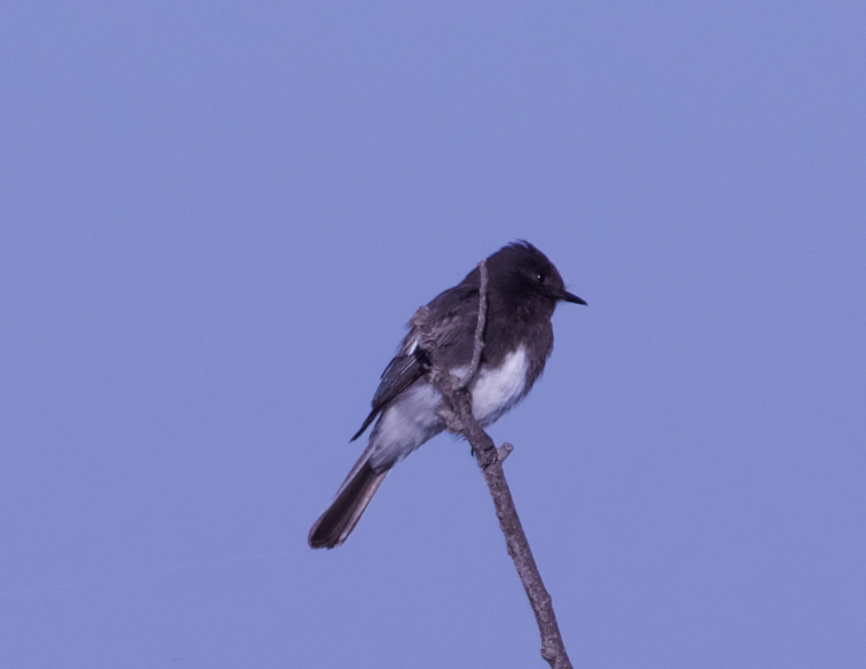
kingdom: Animalia
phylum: Chordata
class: Aves
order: Passeriformes
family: Tyrannidae
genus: Sayornis
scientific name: Sayornis nigricans
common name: Black phoebe
